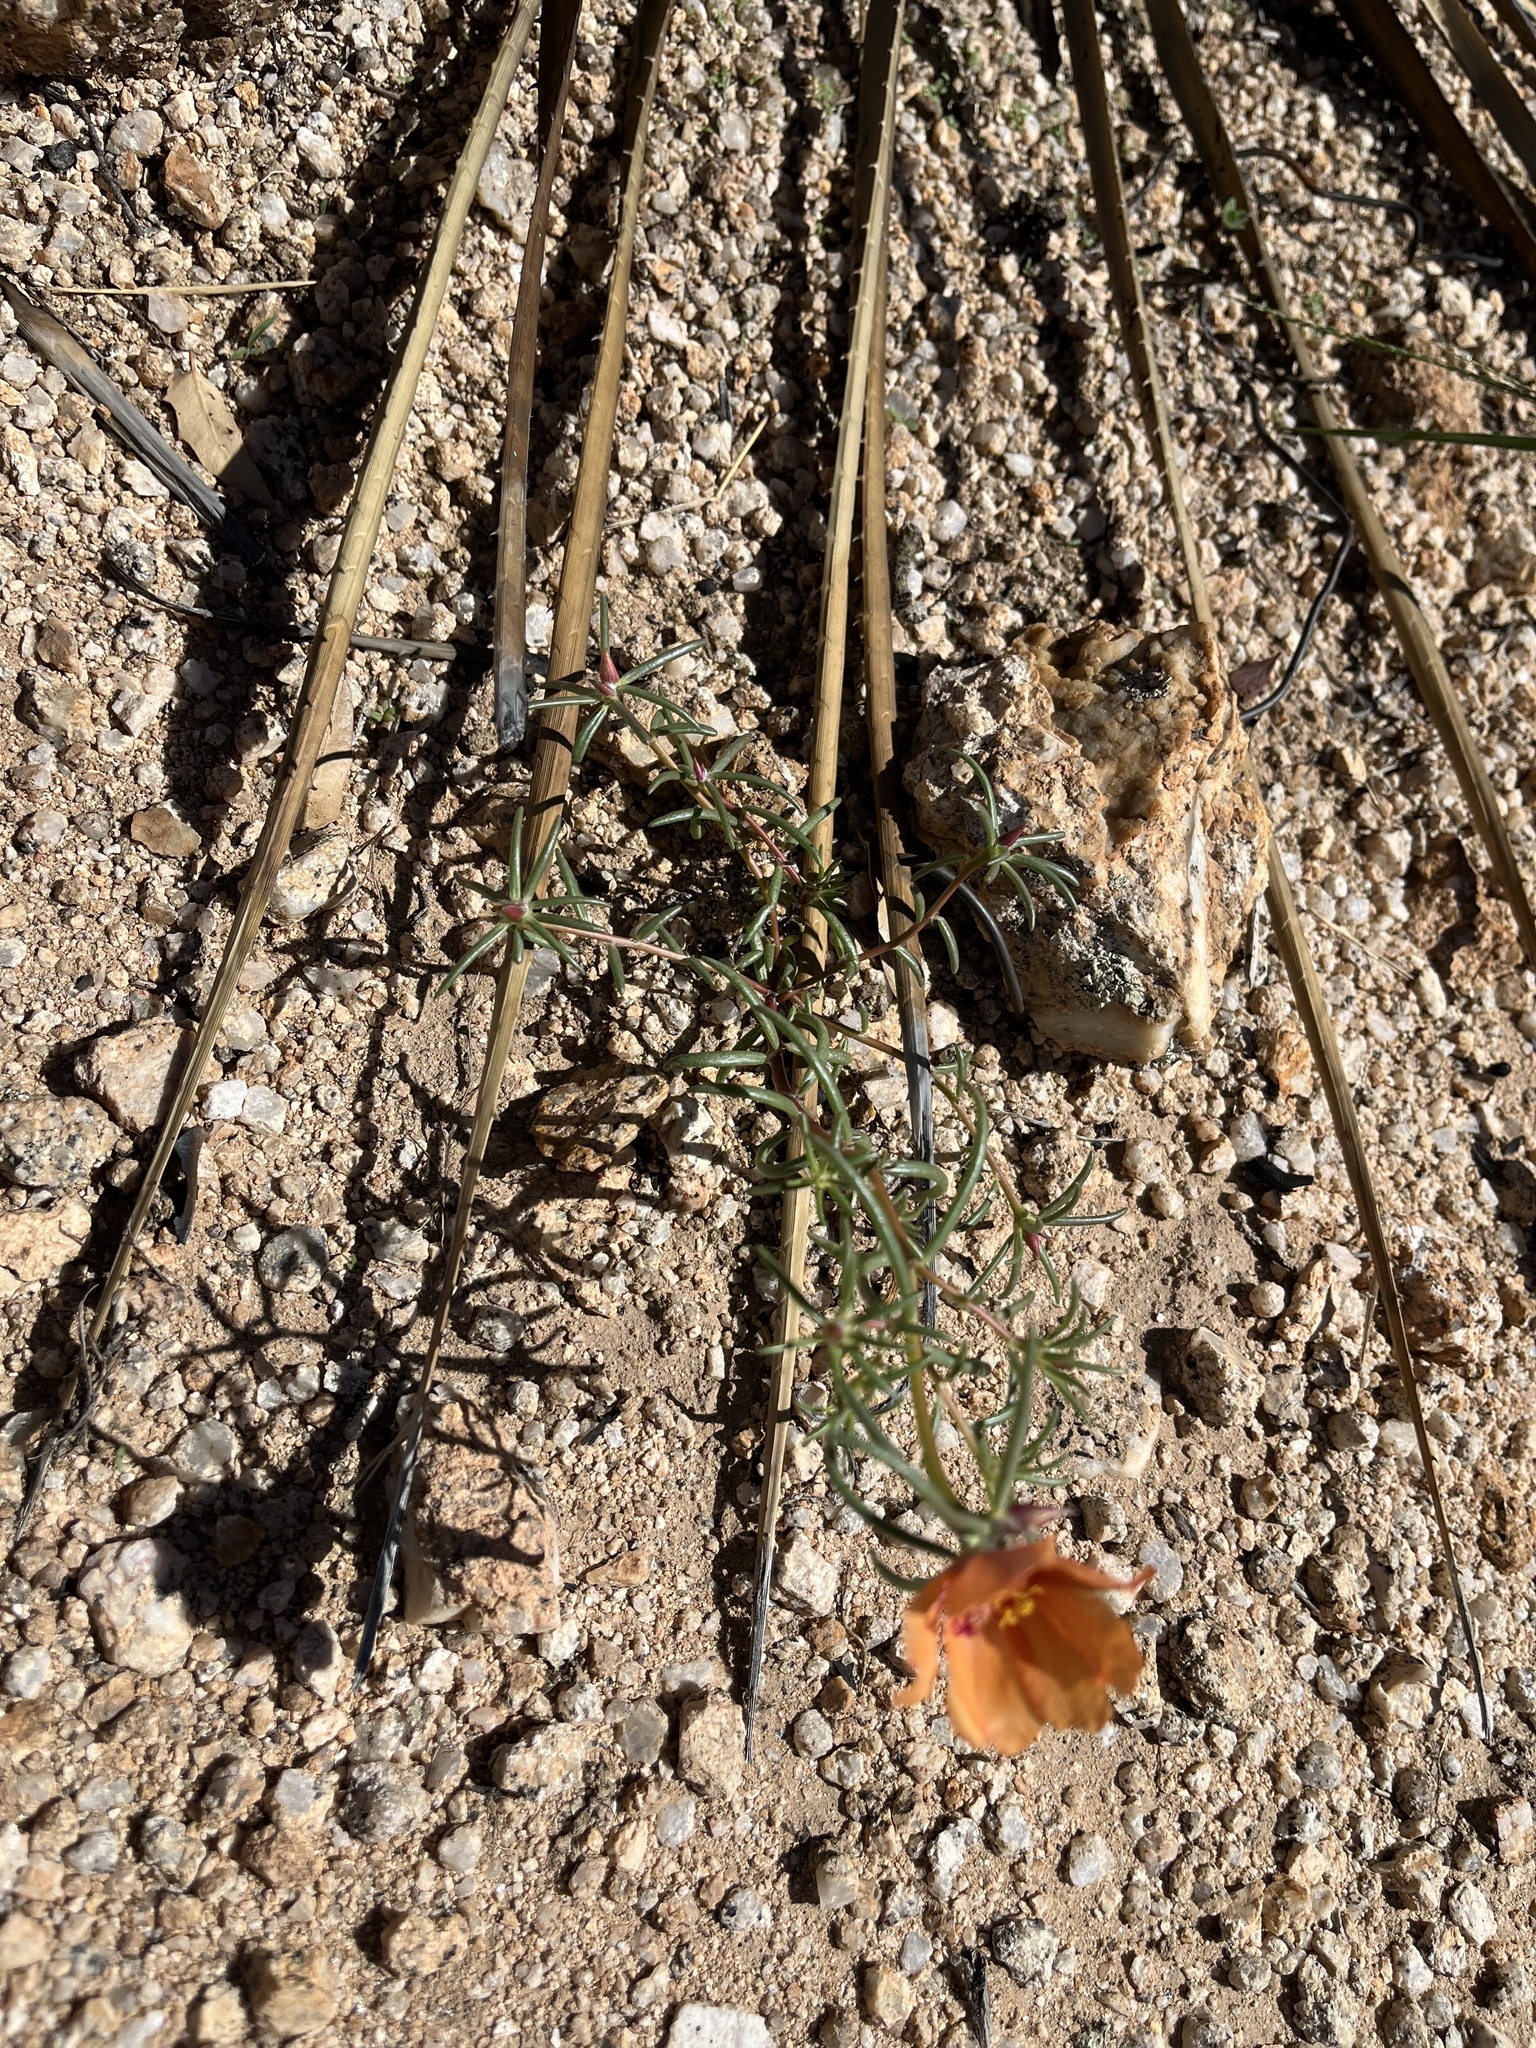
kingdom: Plantae
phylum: Tracheophyta
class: Magnoliopsida
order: Caryophyllales
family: Portulacaceae
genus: Portulaca
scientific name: Portulaca suffrutescens
